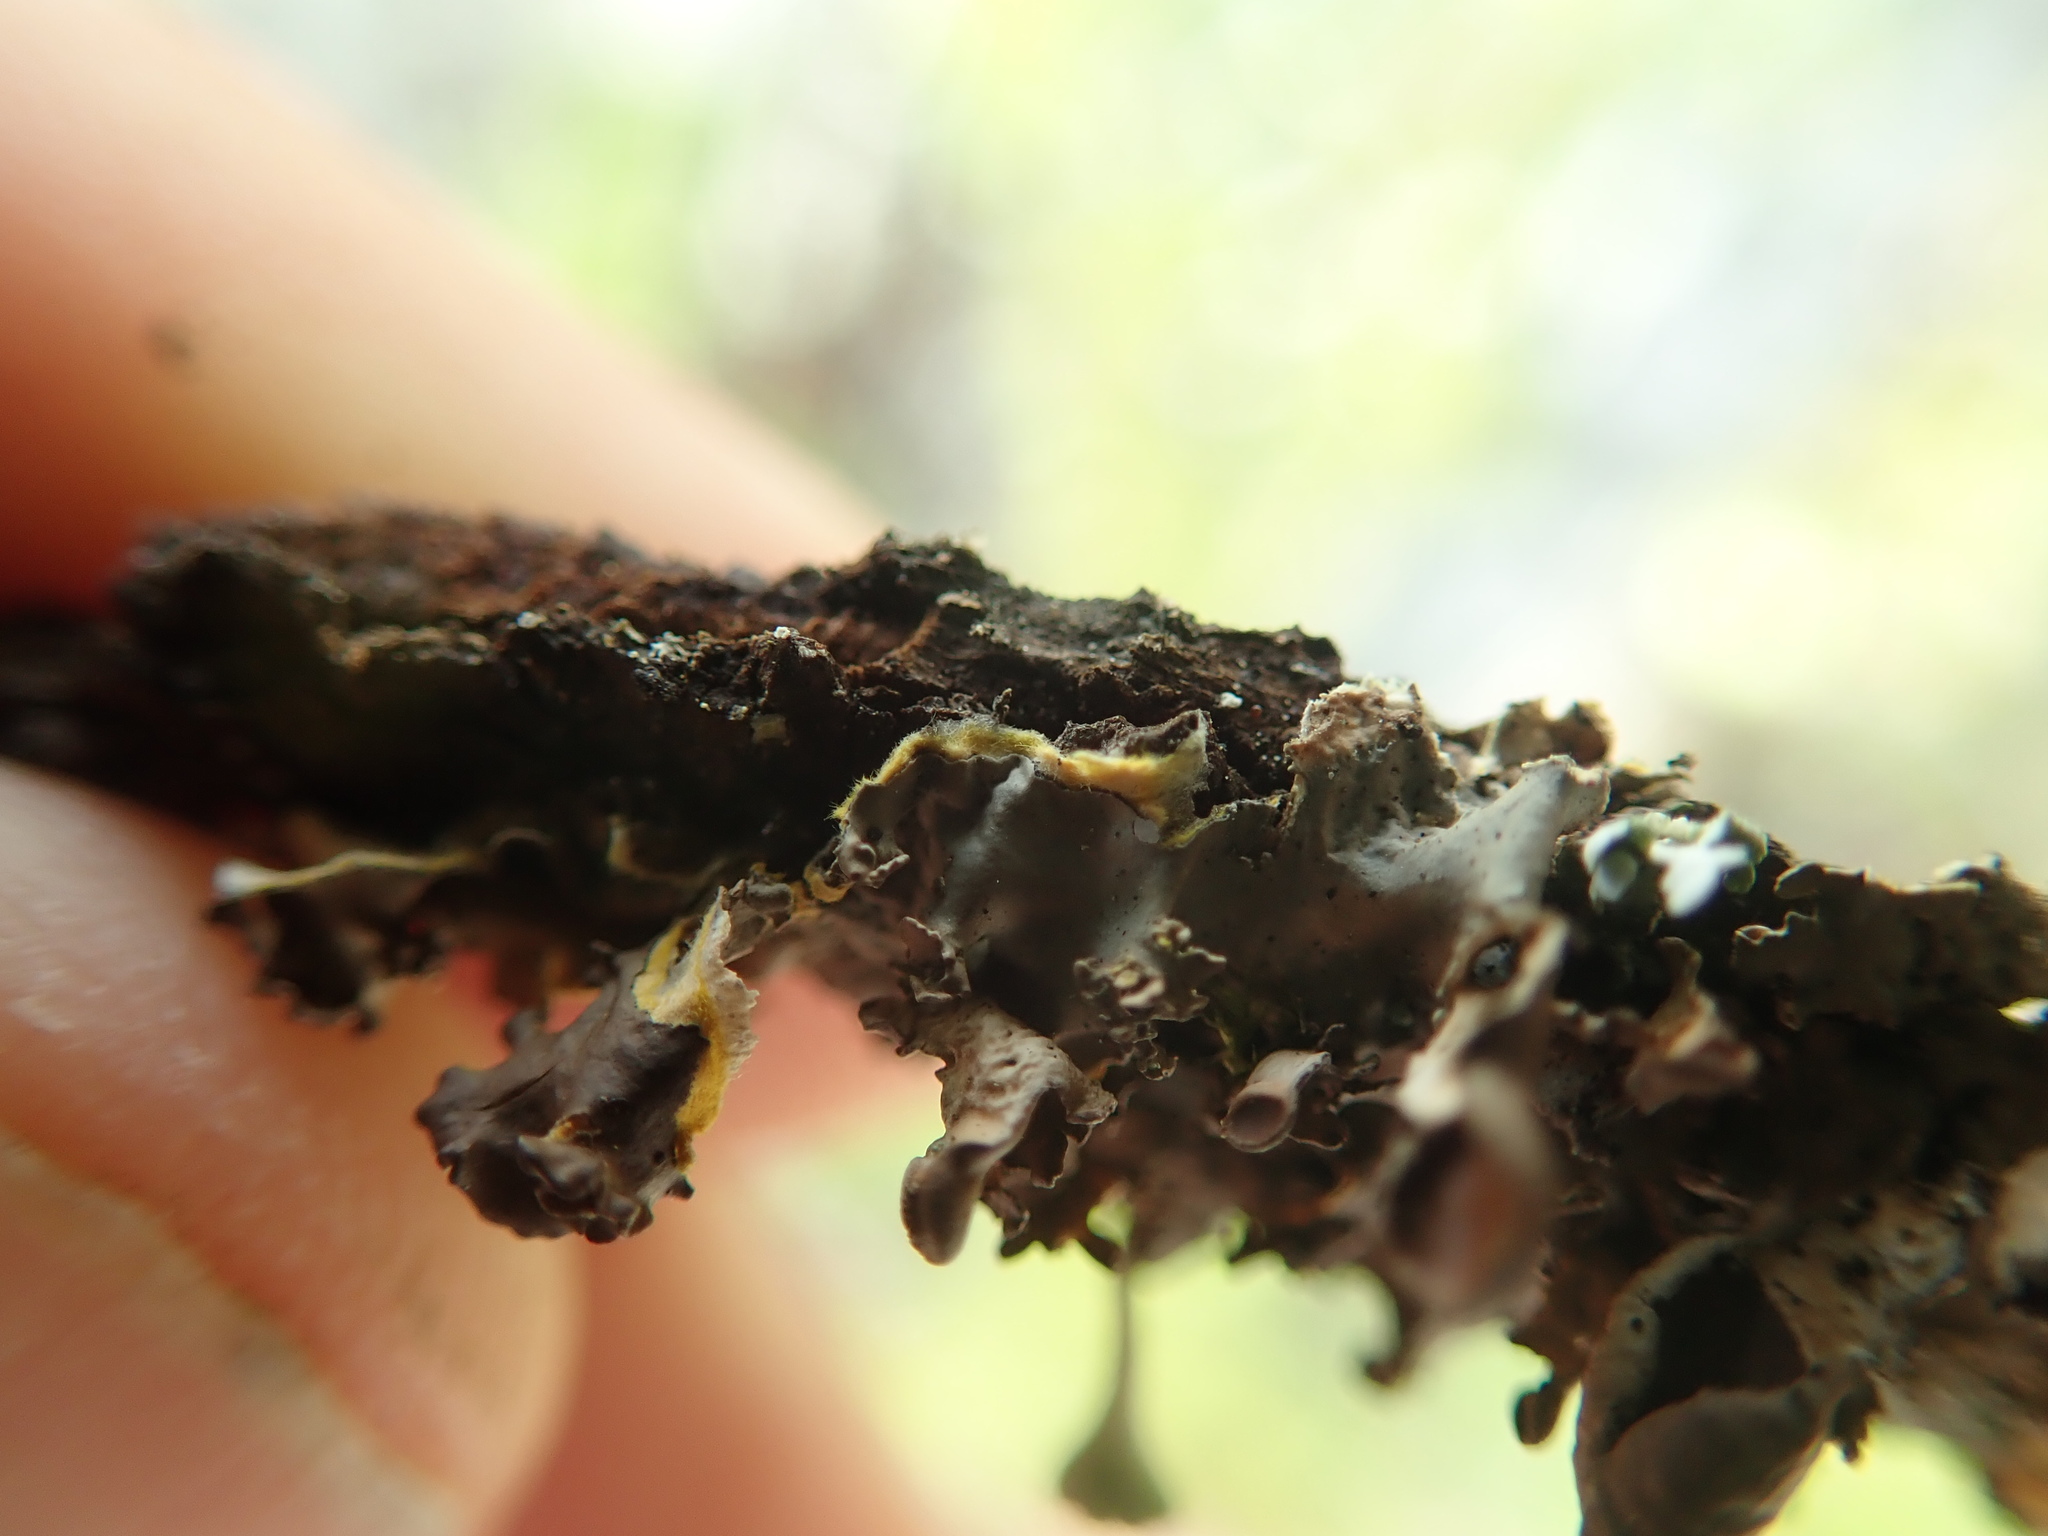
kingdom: Fungi
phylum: Ascomycota
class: Lecanoromycetes
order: Peltigerales
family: Nephromataceae
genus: Nephroma
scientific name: Nephroma laevigatum
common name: Mustard kidney lichen
